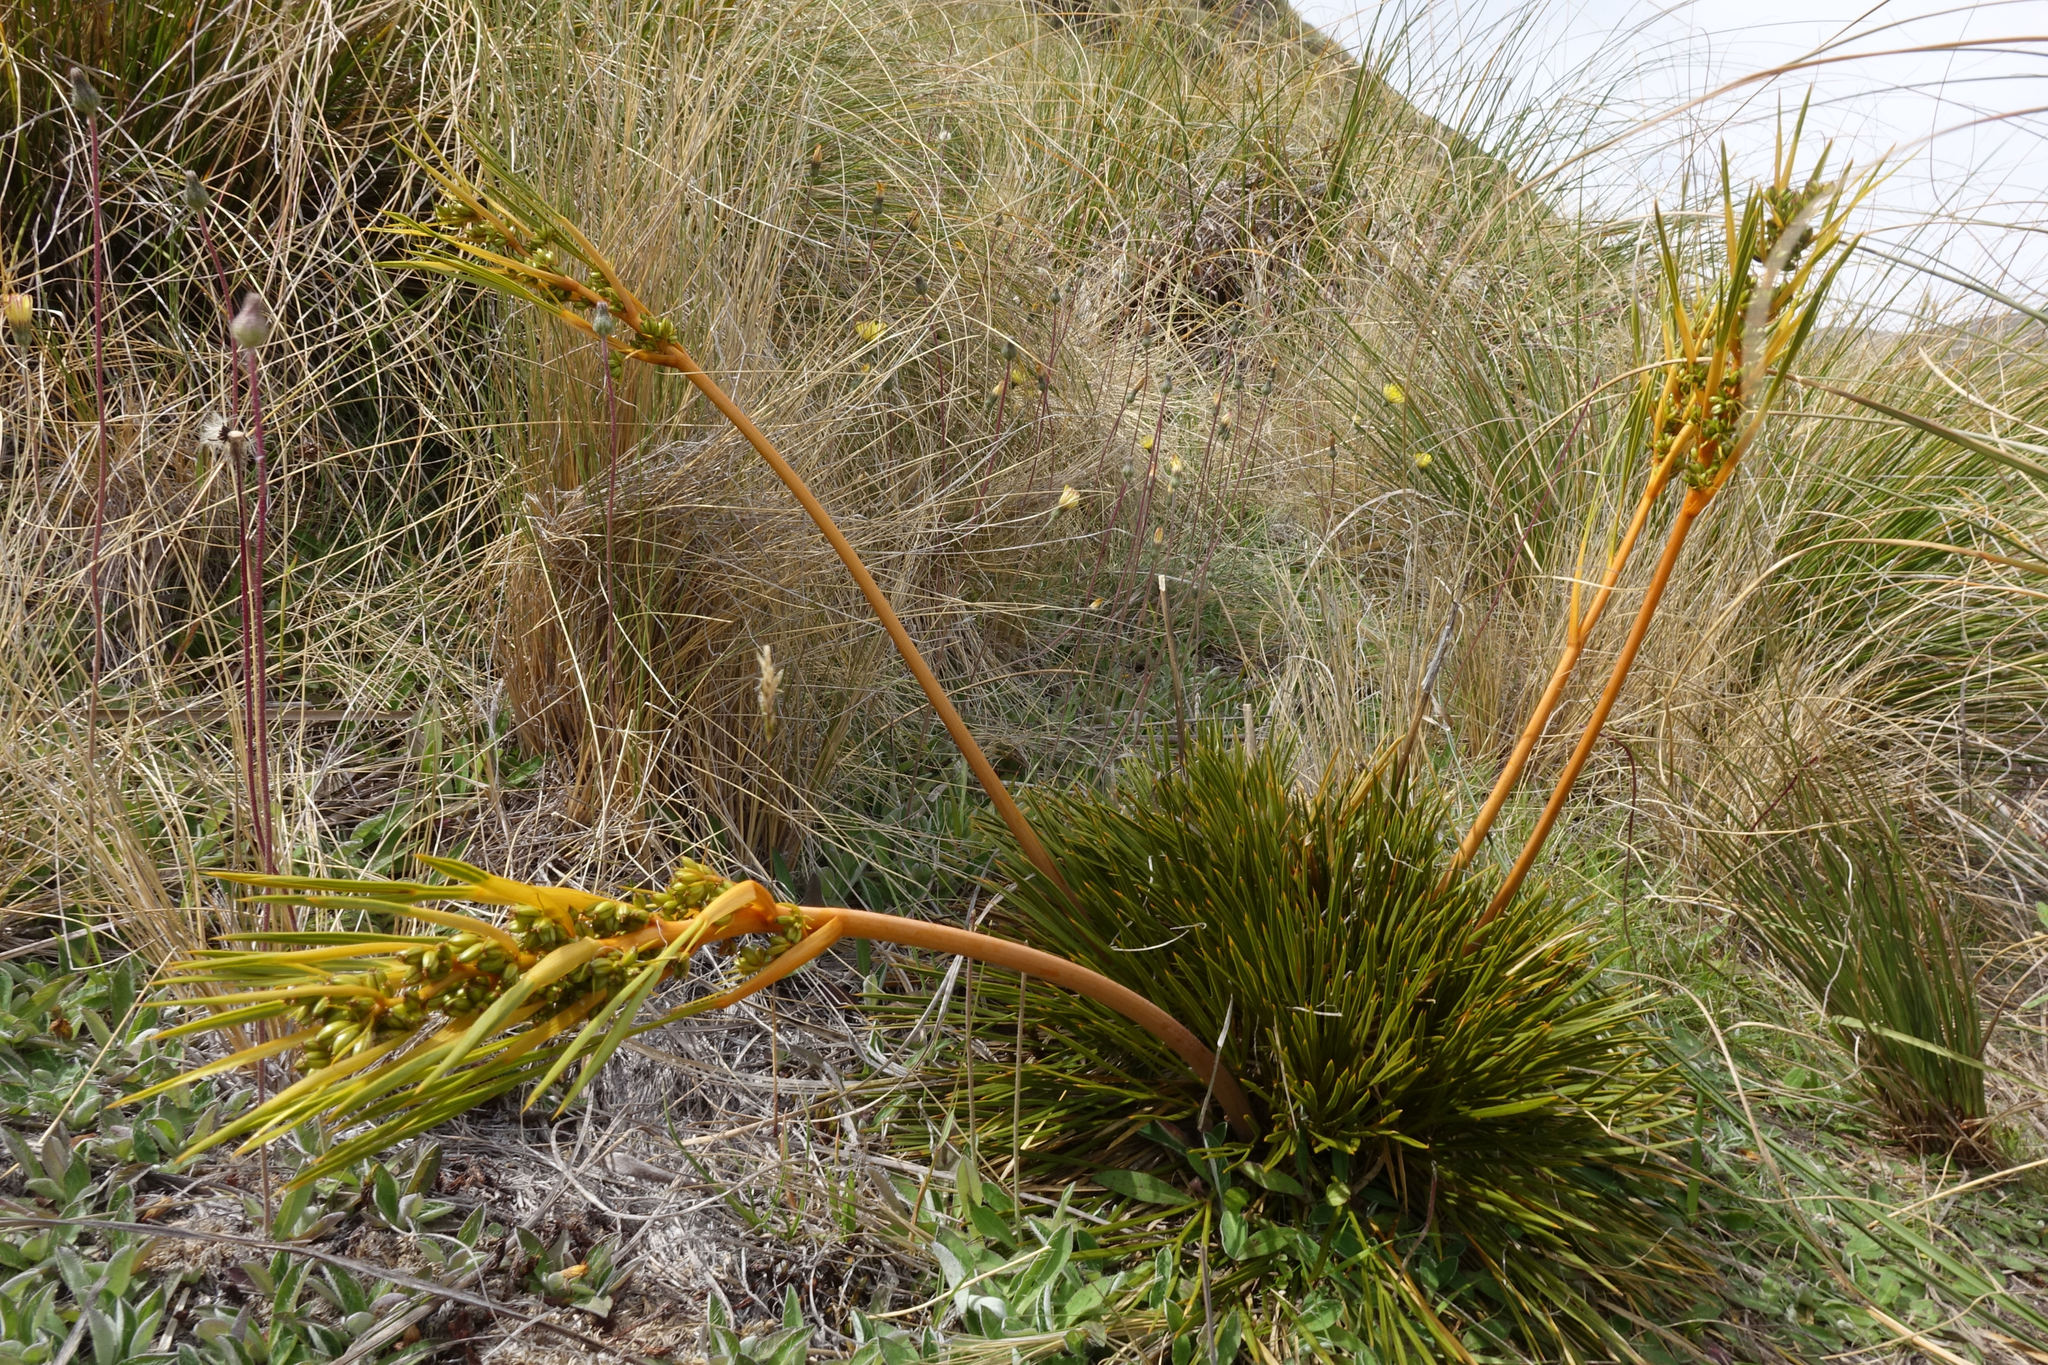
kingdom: Plantae
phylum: Tracheophyta
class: Magnoliopsida
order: Apiales
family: Apiaceae
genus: Aciphylla
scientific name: Aciphylla montana
